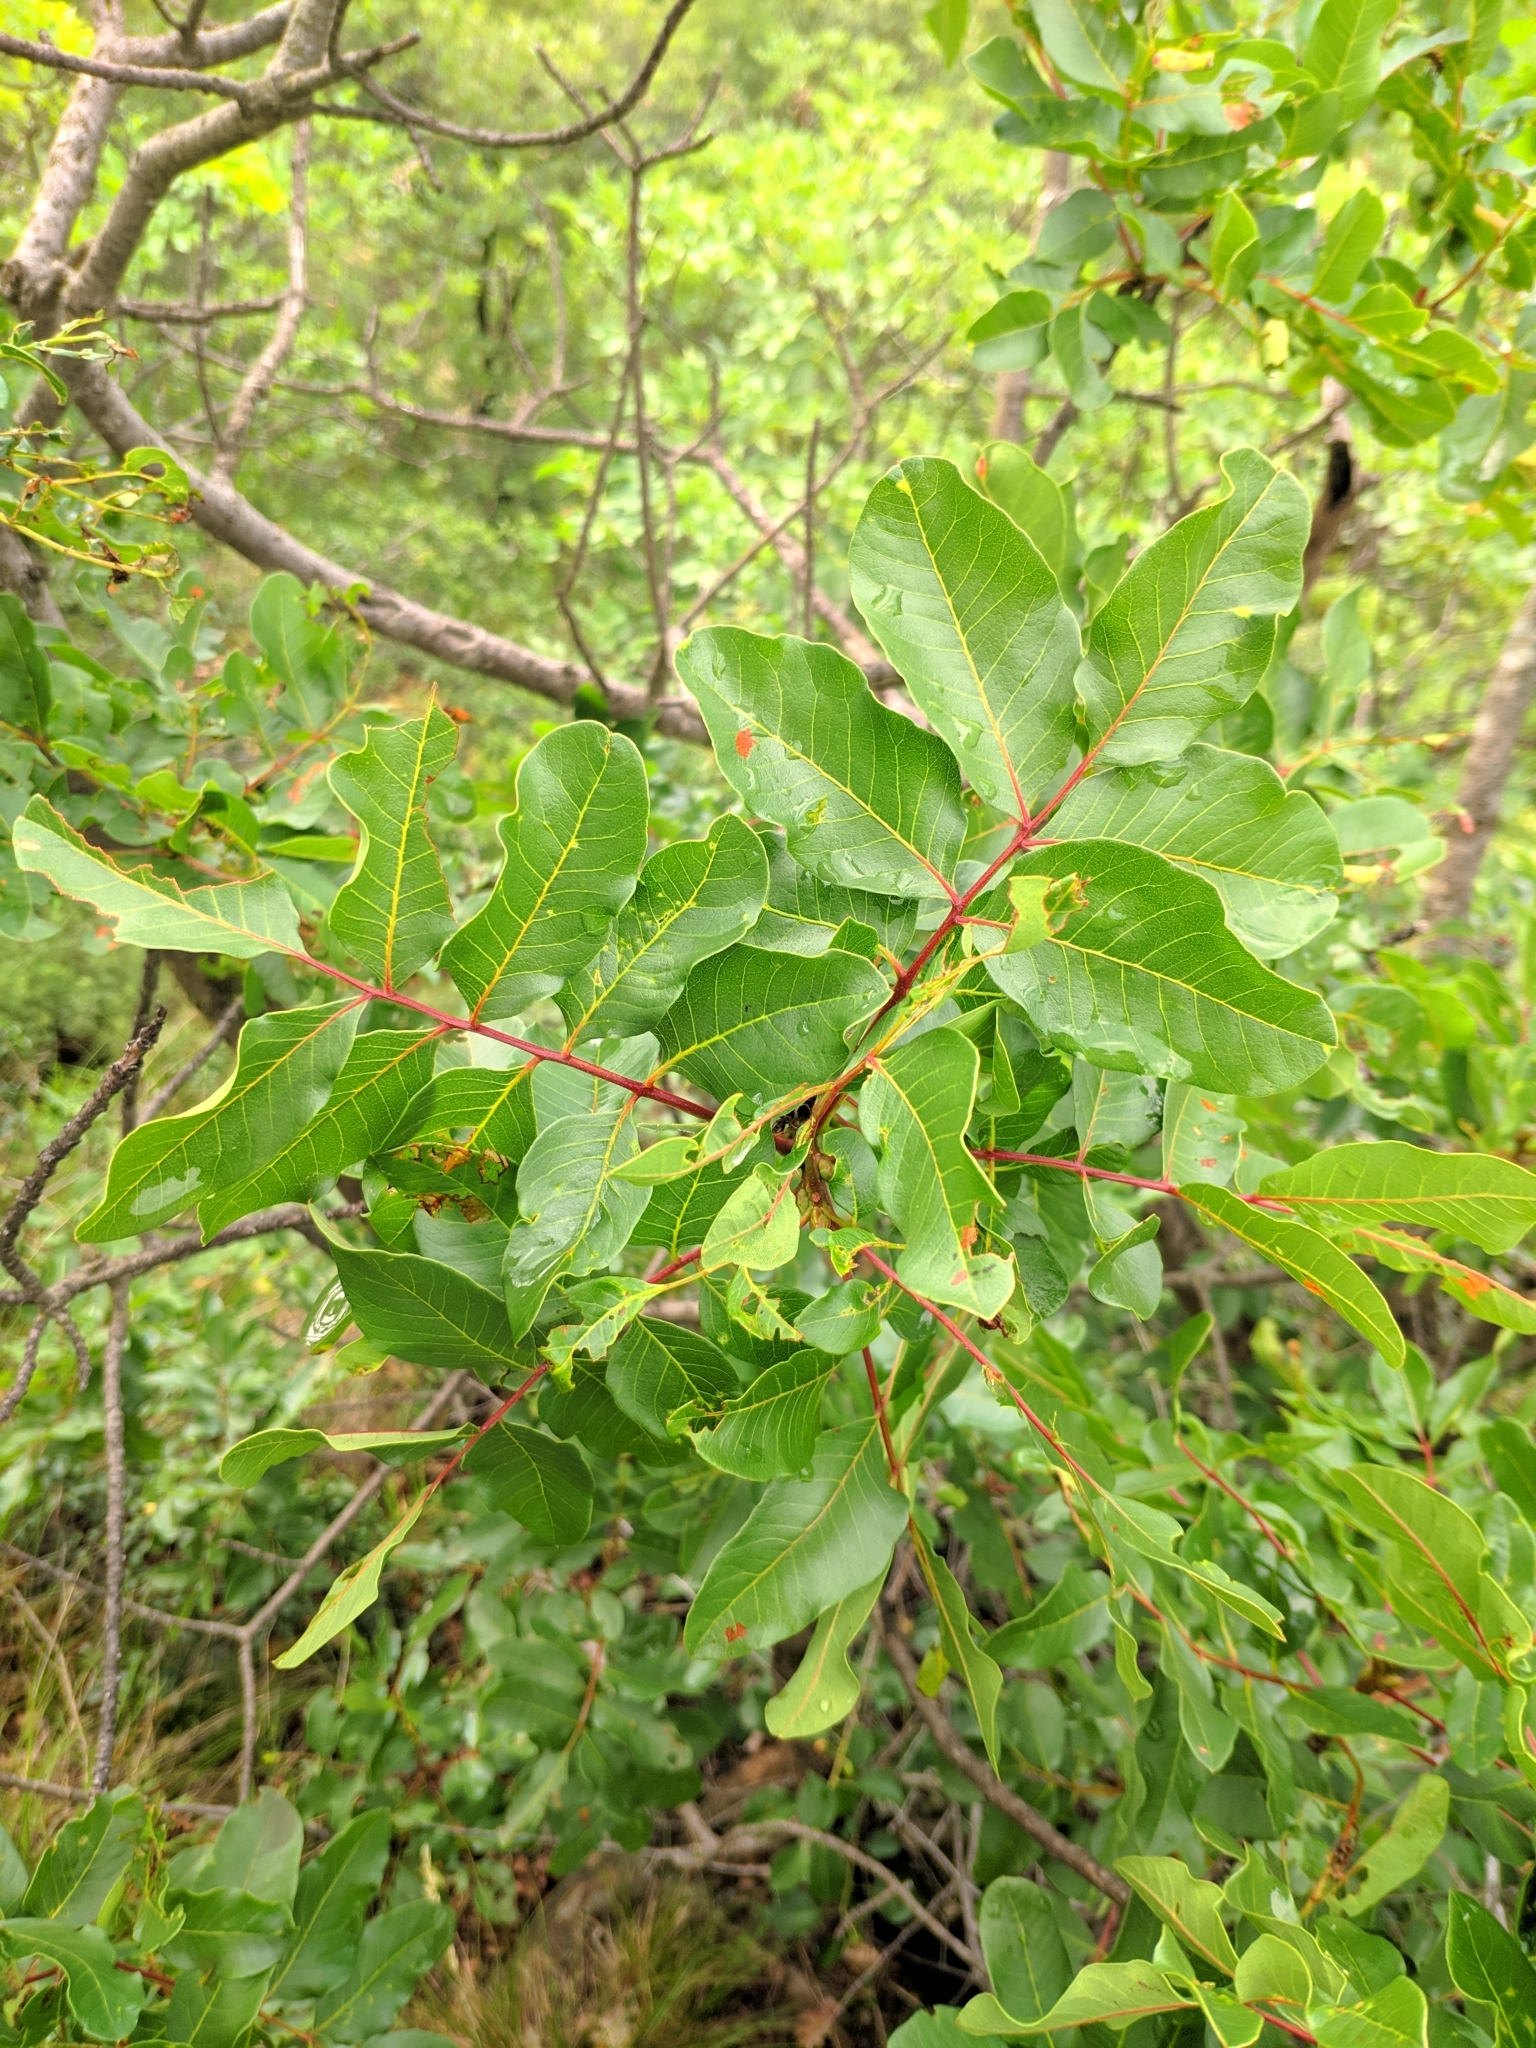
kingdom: Plantae
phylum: Tracheophyta
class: Magnoliopsida
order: Sapindales
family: Anacardiaceae
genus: Pistacia
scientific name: Pistacia terebinthus
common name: Terebinth
